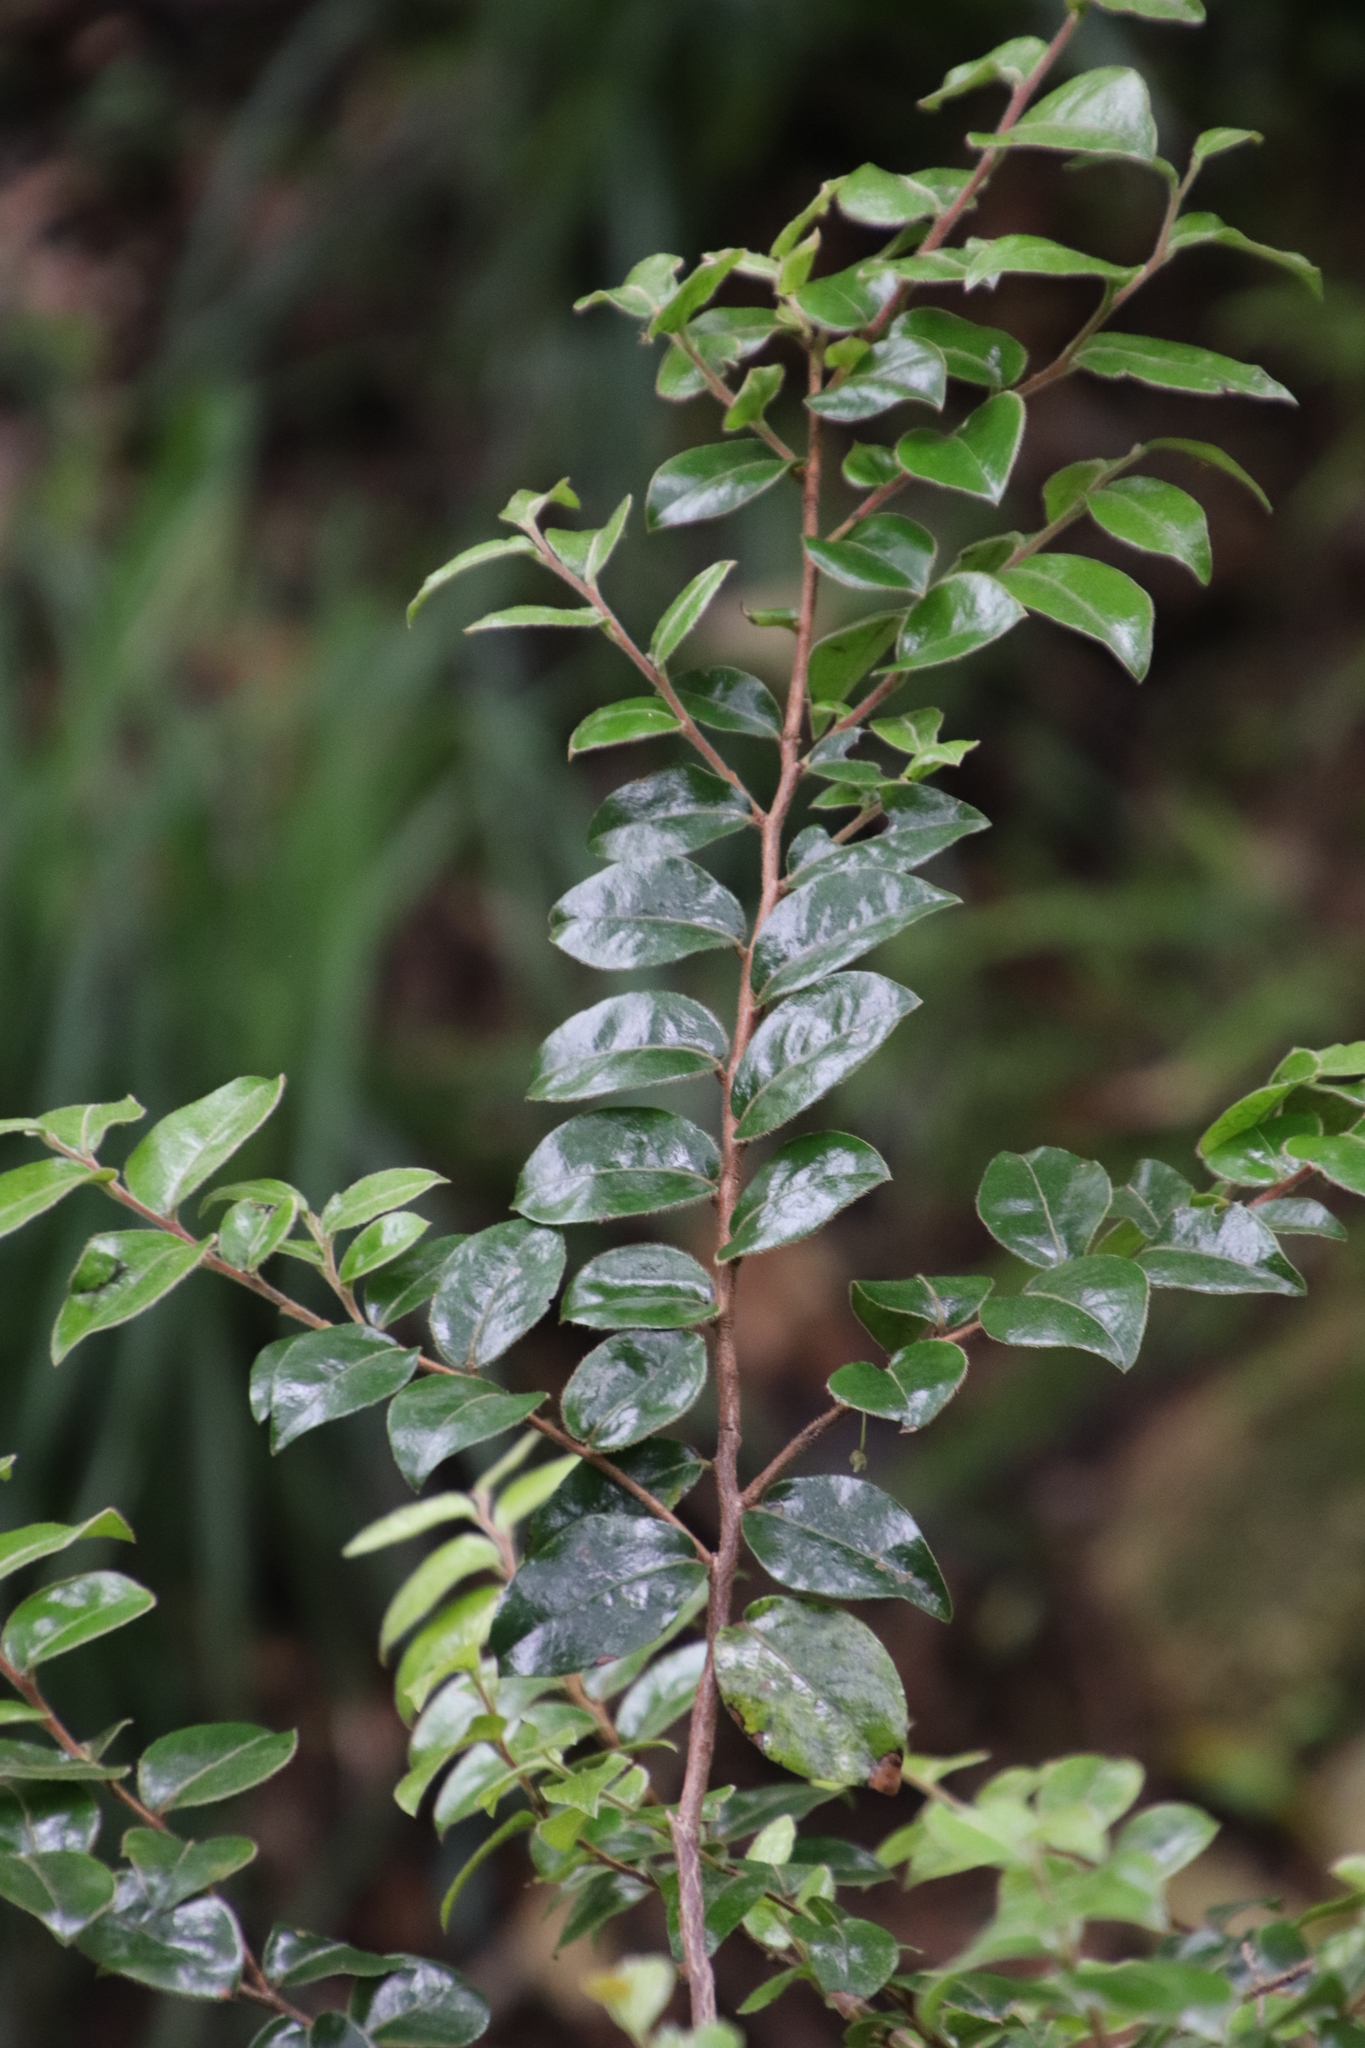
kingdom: Plantae
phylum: Tracheophyta
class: Magnoliopsida
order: Ericales
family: Ebenaceae
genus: Diospyros
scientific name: Diospyros whyteana
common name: Bladder-nut
